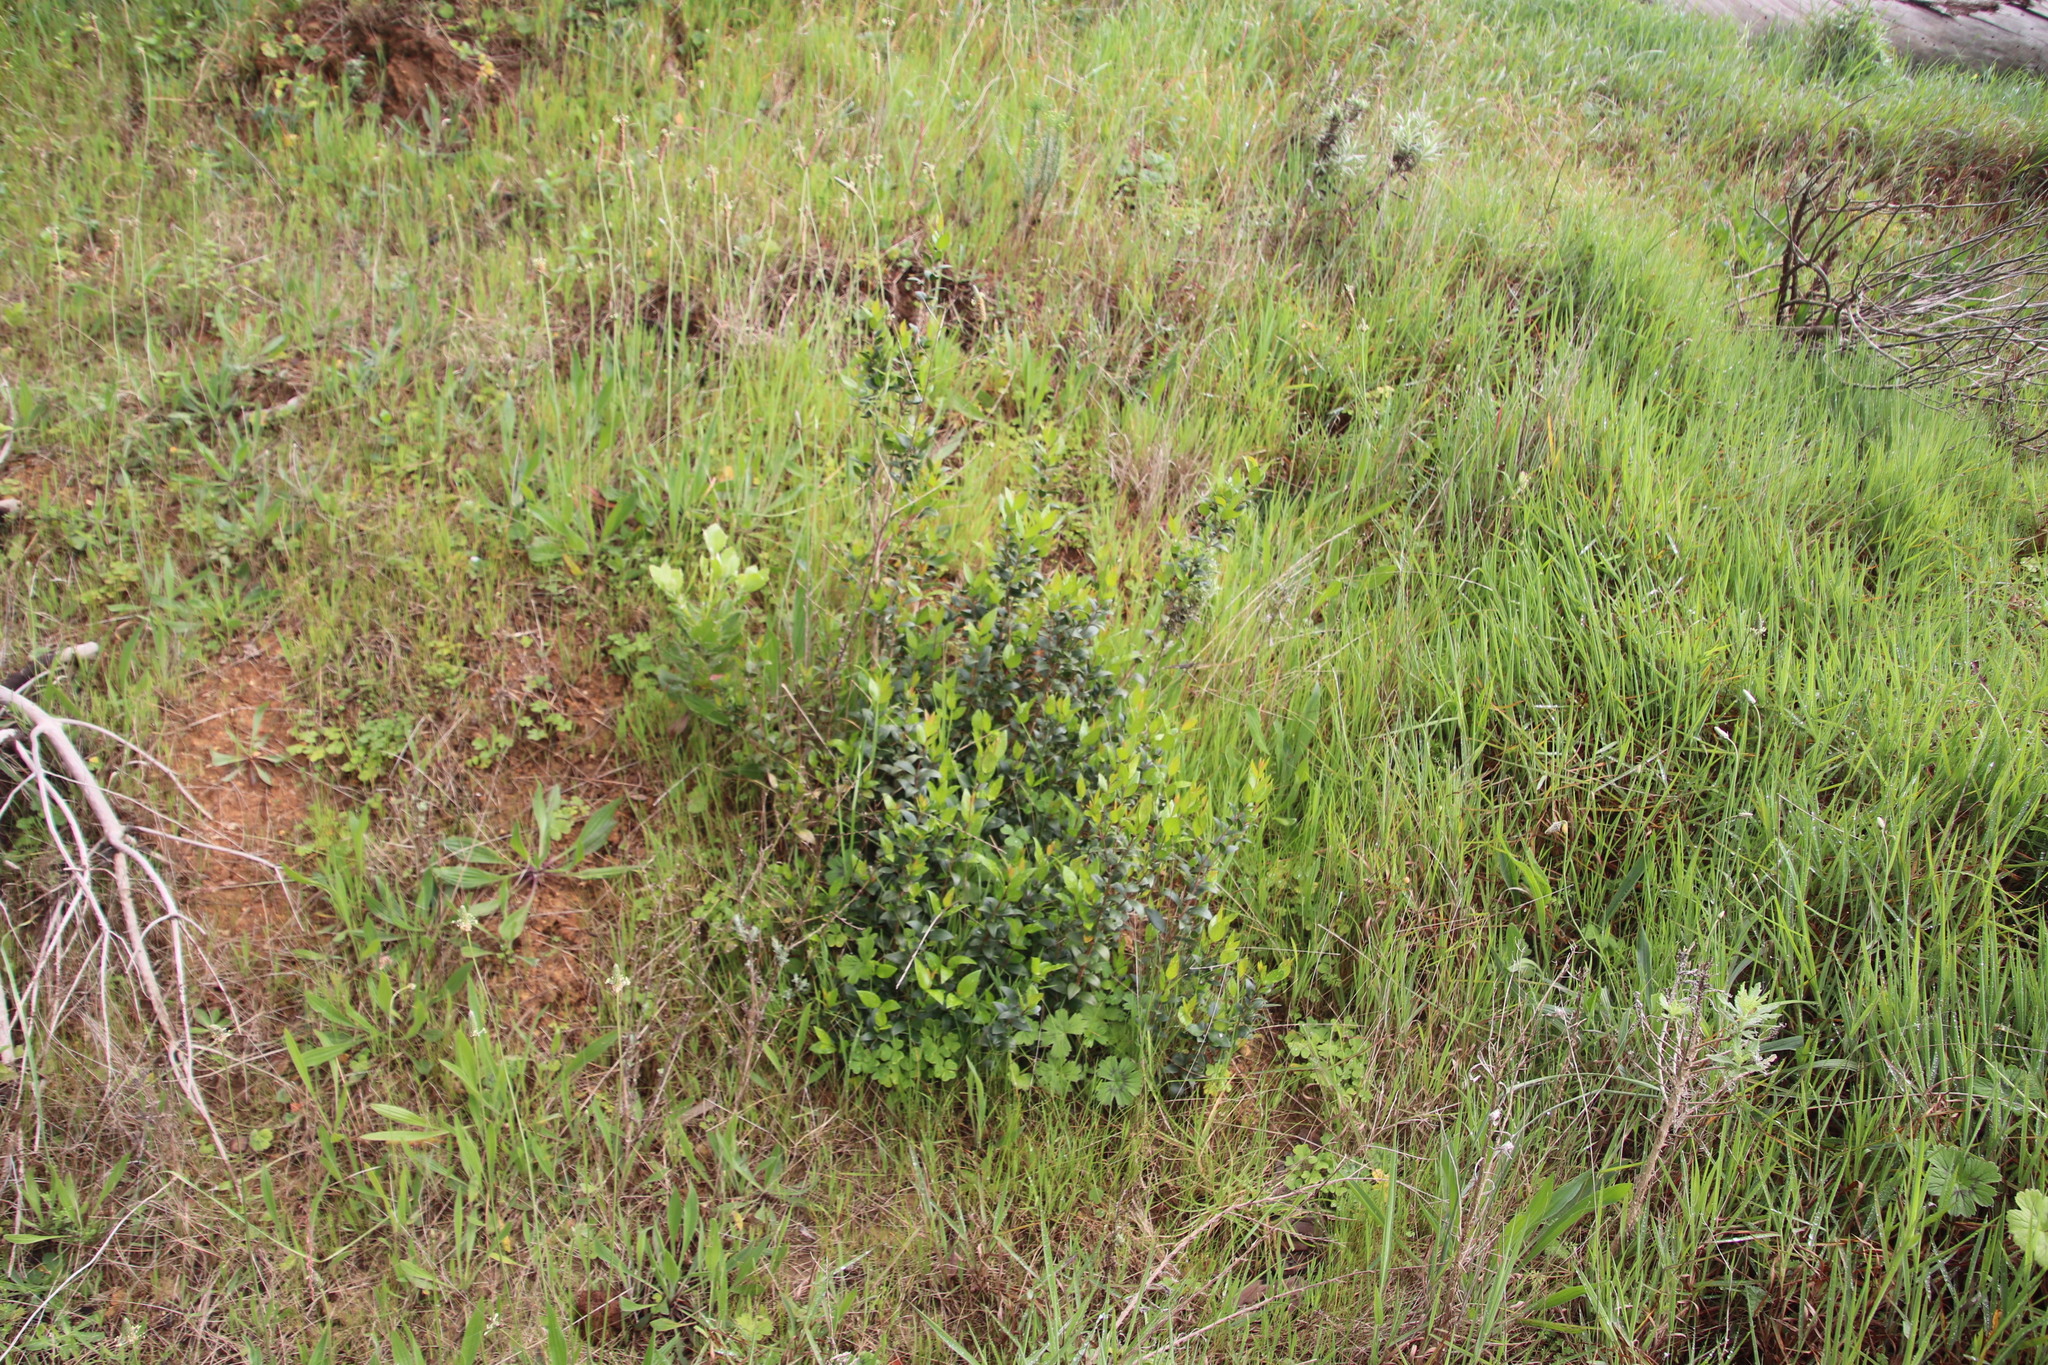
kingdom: Plantae
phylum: Tracheophyta
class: Magnoliopsida
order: Myrtales
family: Myrtaceae
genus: Myrtus
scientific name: Myrtus communis
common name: Myrtle
